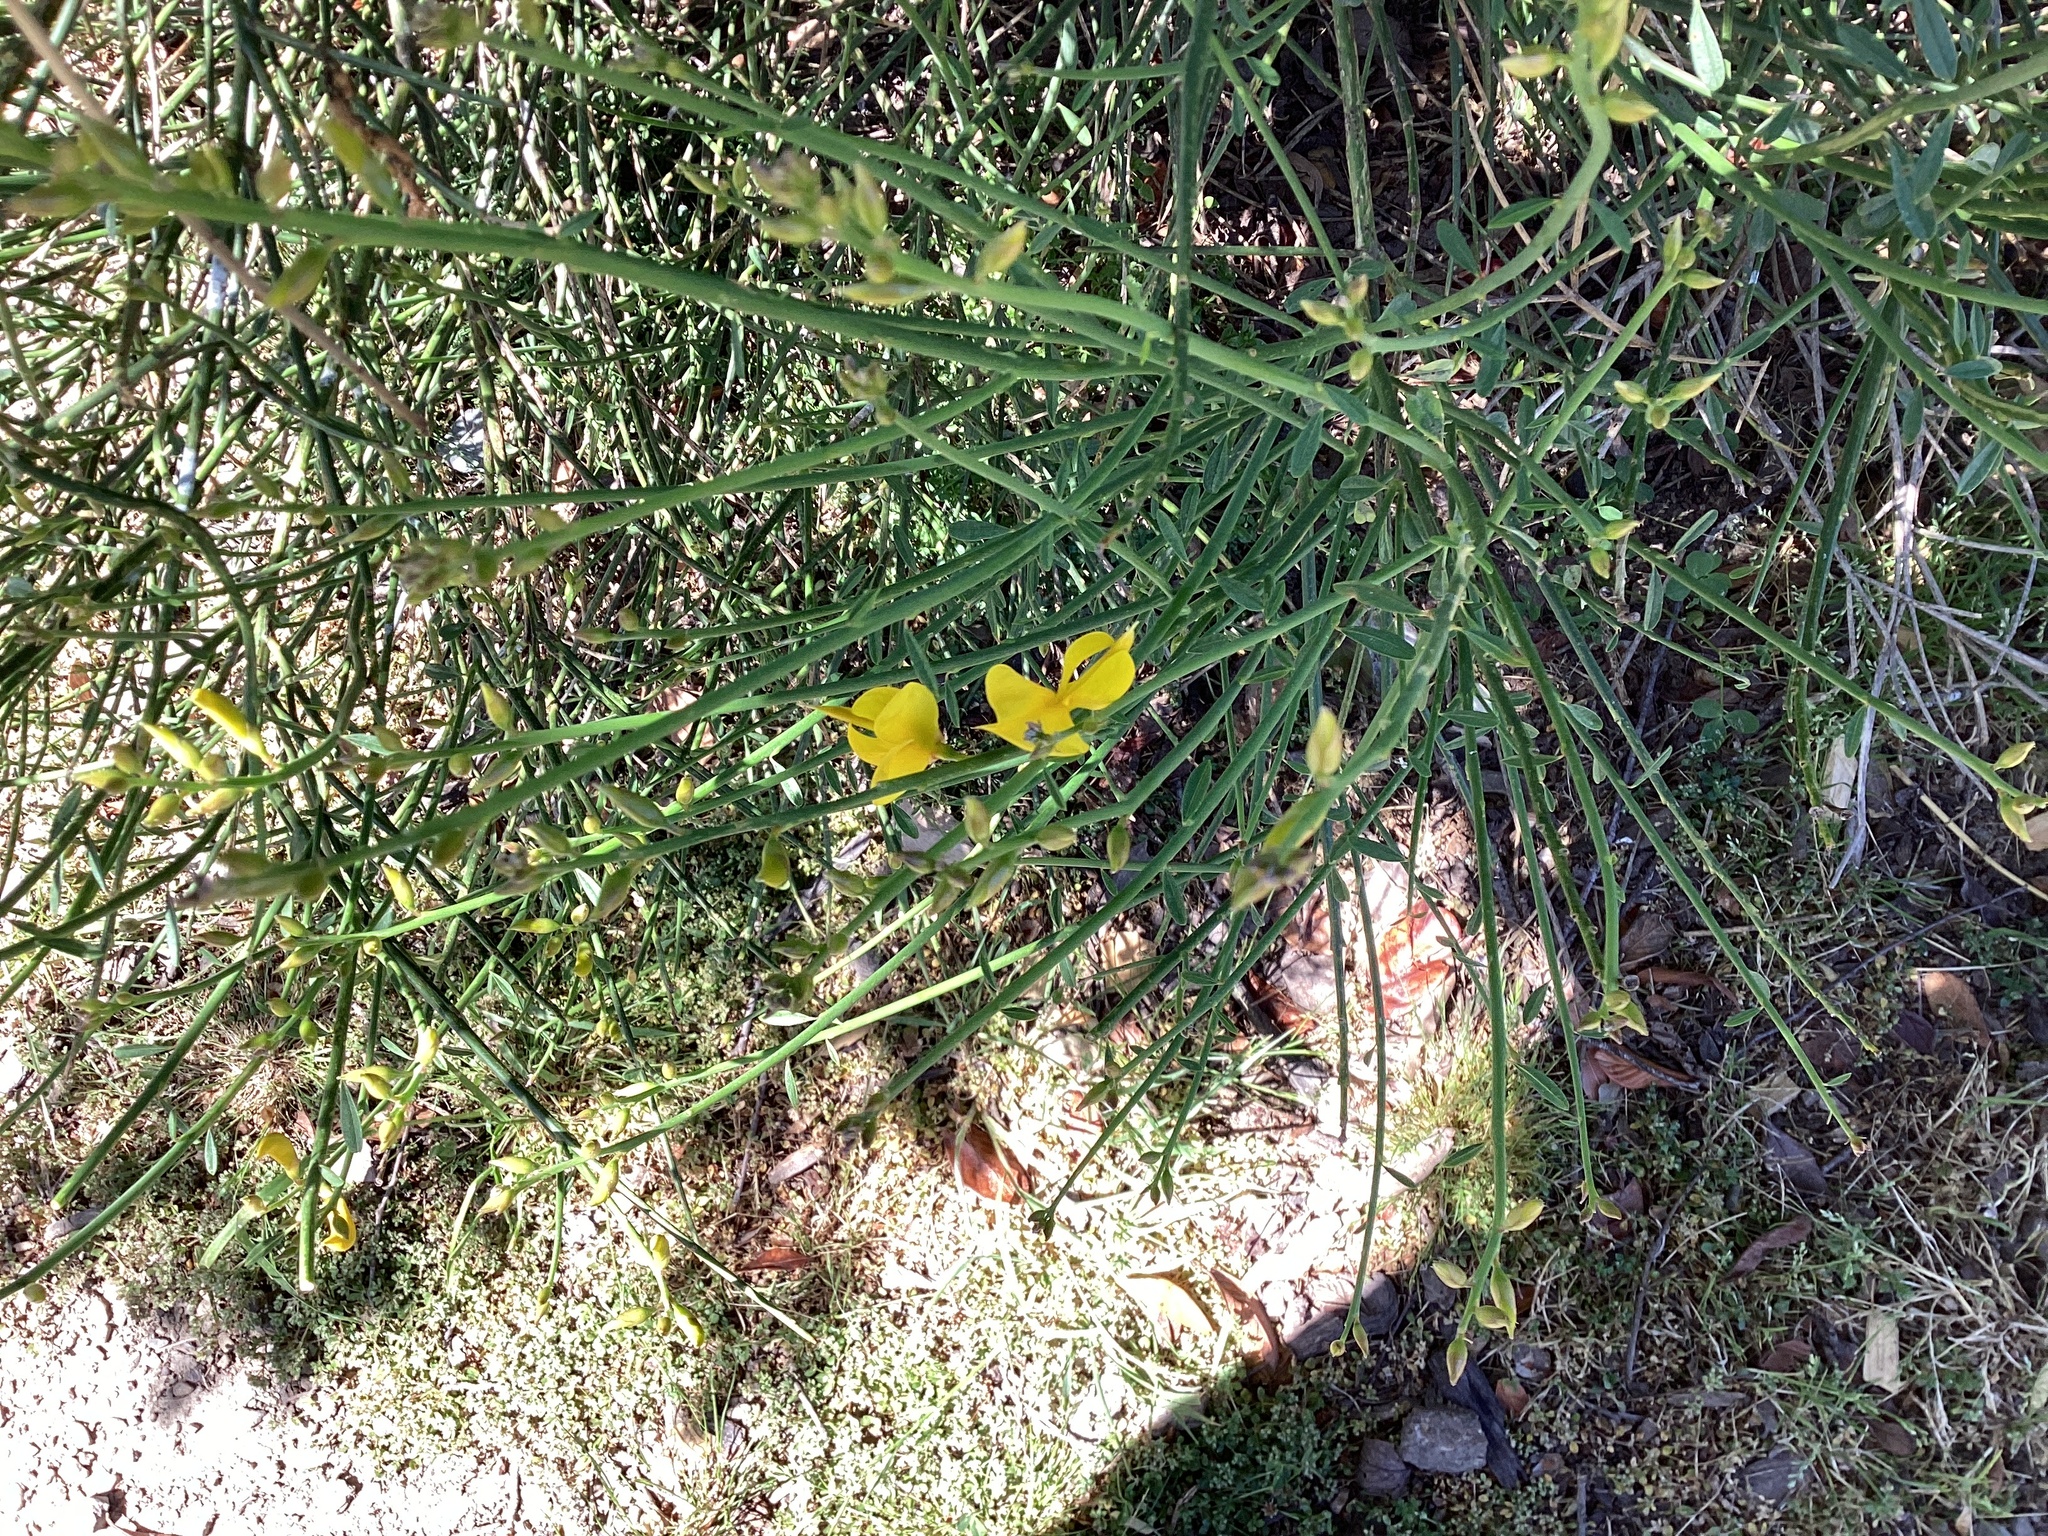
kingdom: Plantae
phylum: Tracheophyta
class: Magnoliopsida
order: Fabales
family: Fabaceae
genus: Spartium
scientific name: Spartium junceum
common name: Spanish broom
